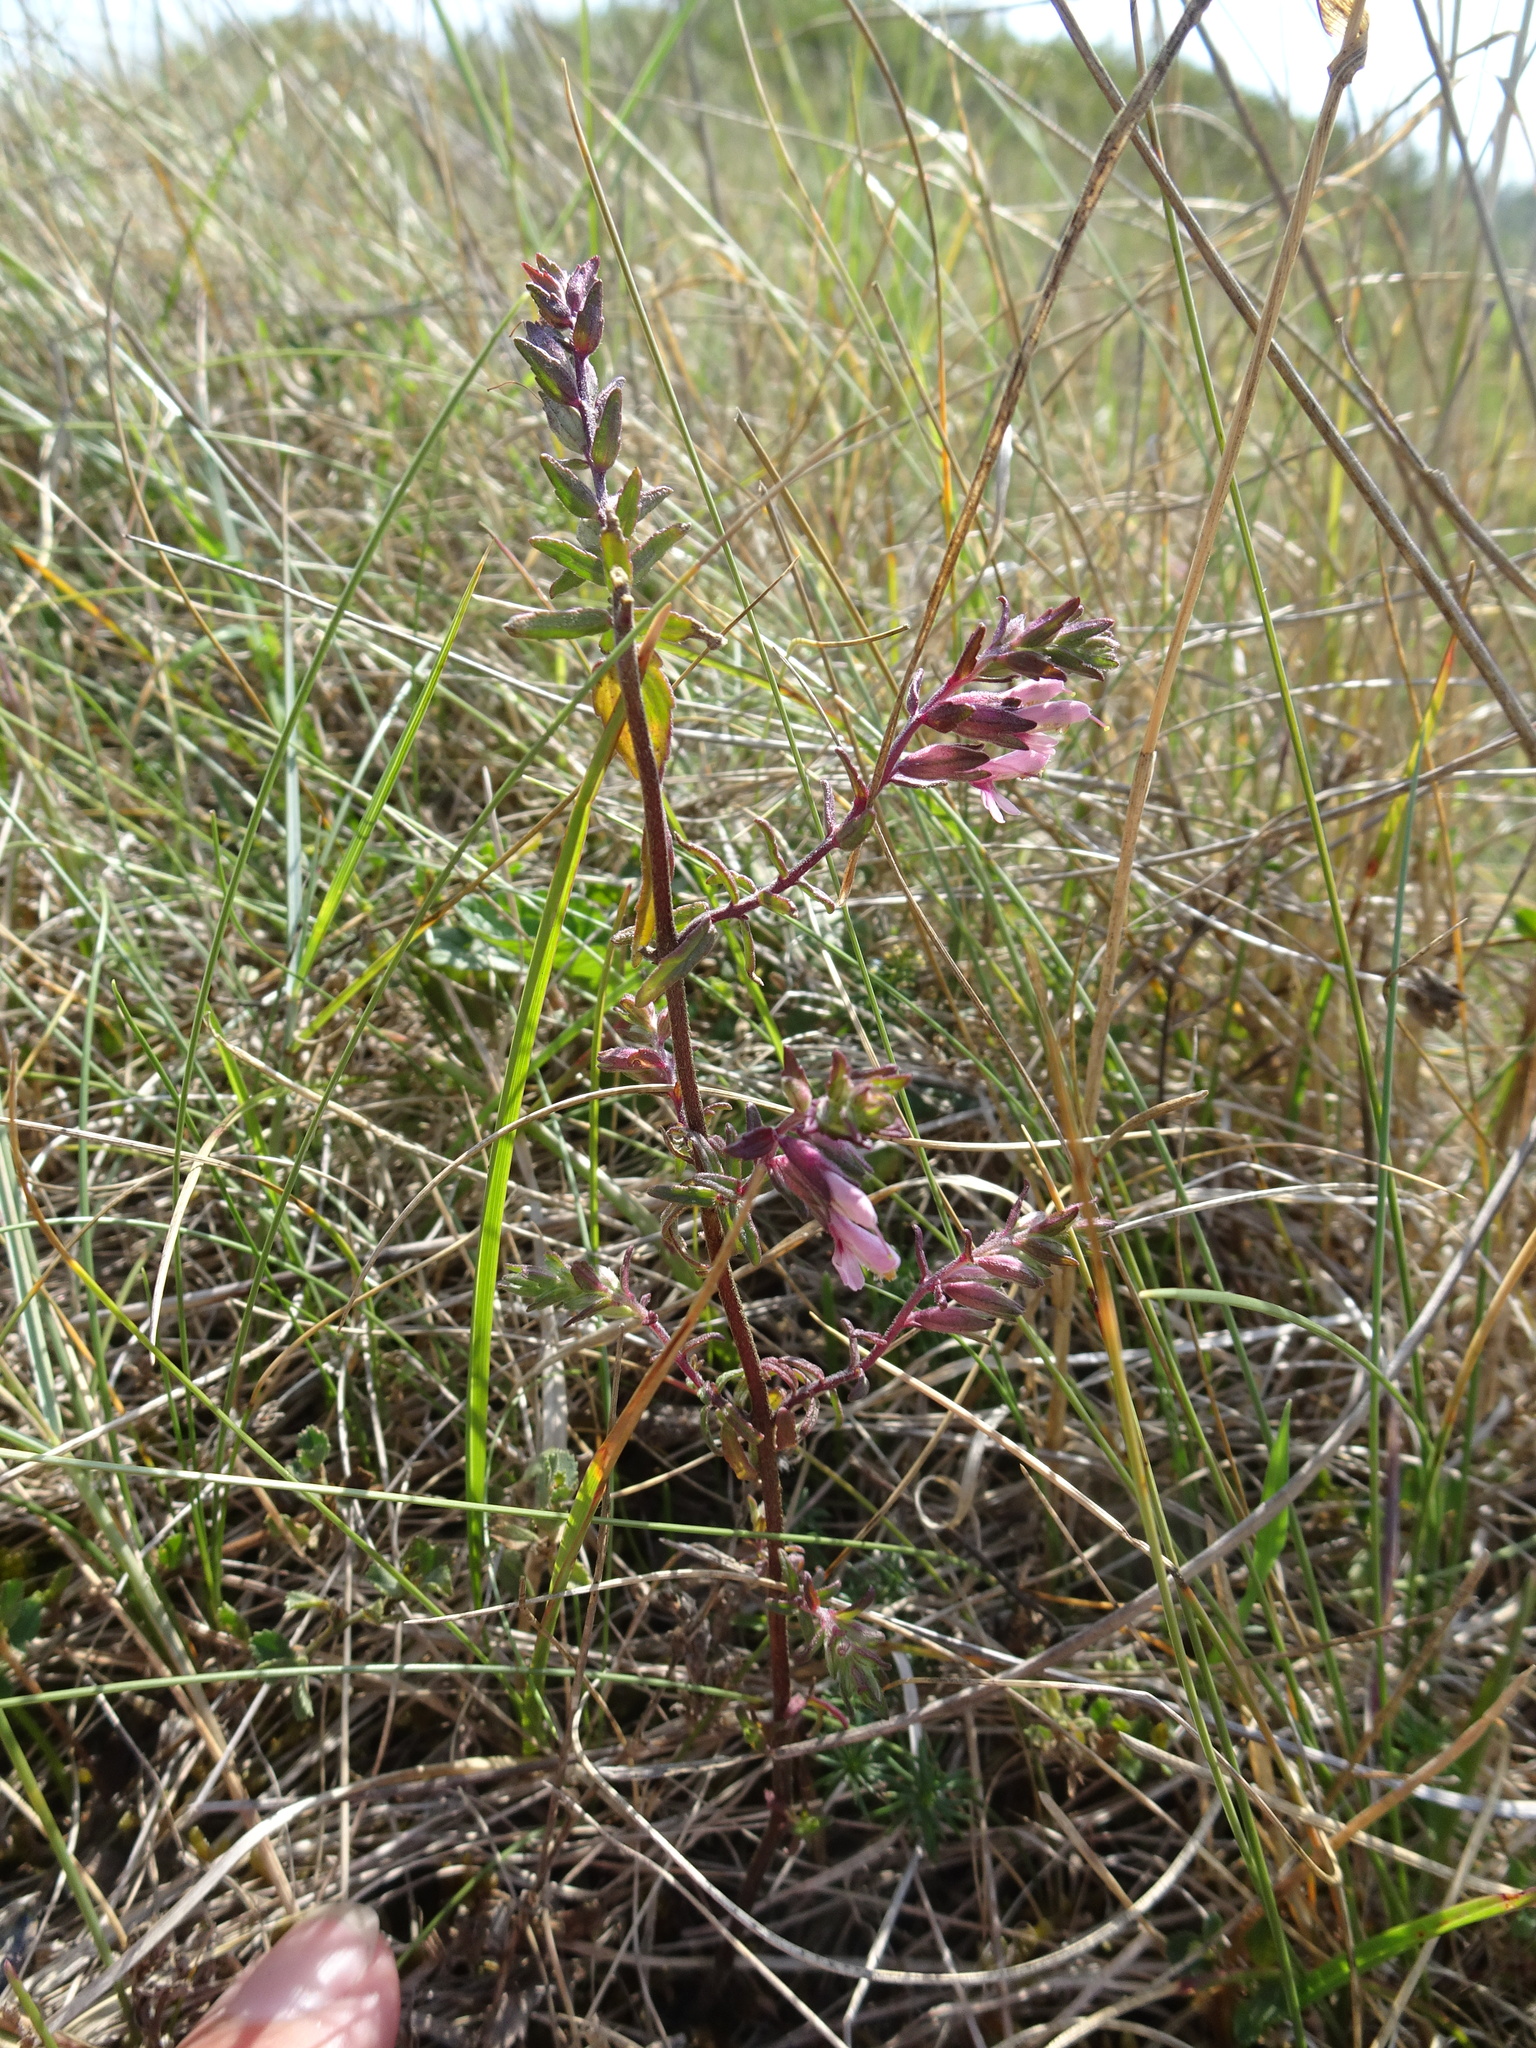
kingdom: Plantae
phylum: Tracheophyta
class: Magnoliopsida
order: Lamiales
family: Orobanchaceae
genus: Odontites
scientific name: Odontites vulgaris
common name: Broomrape
